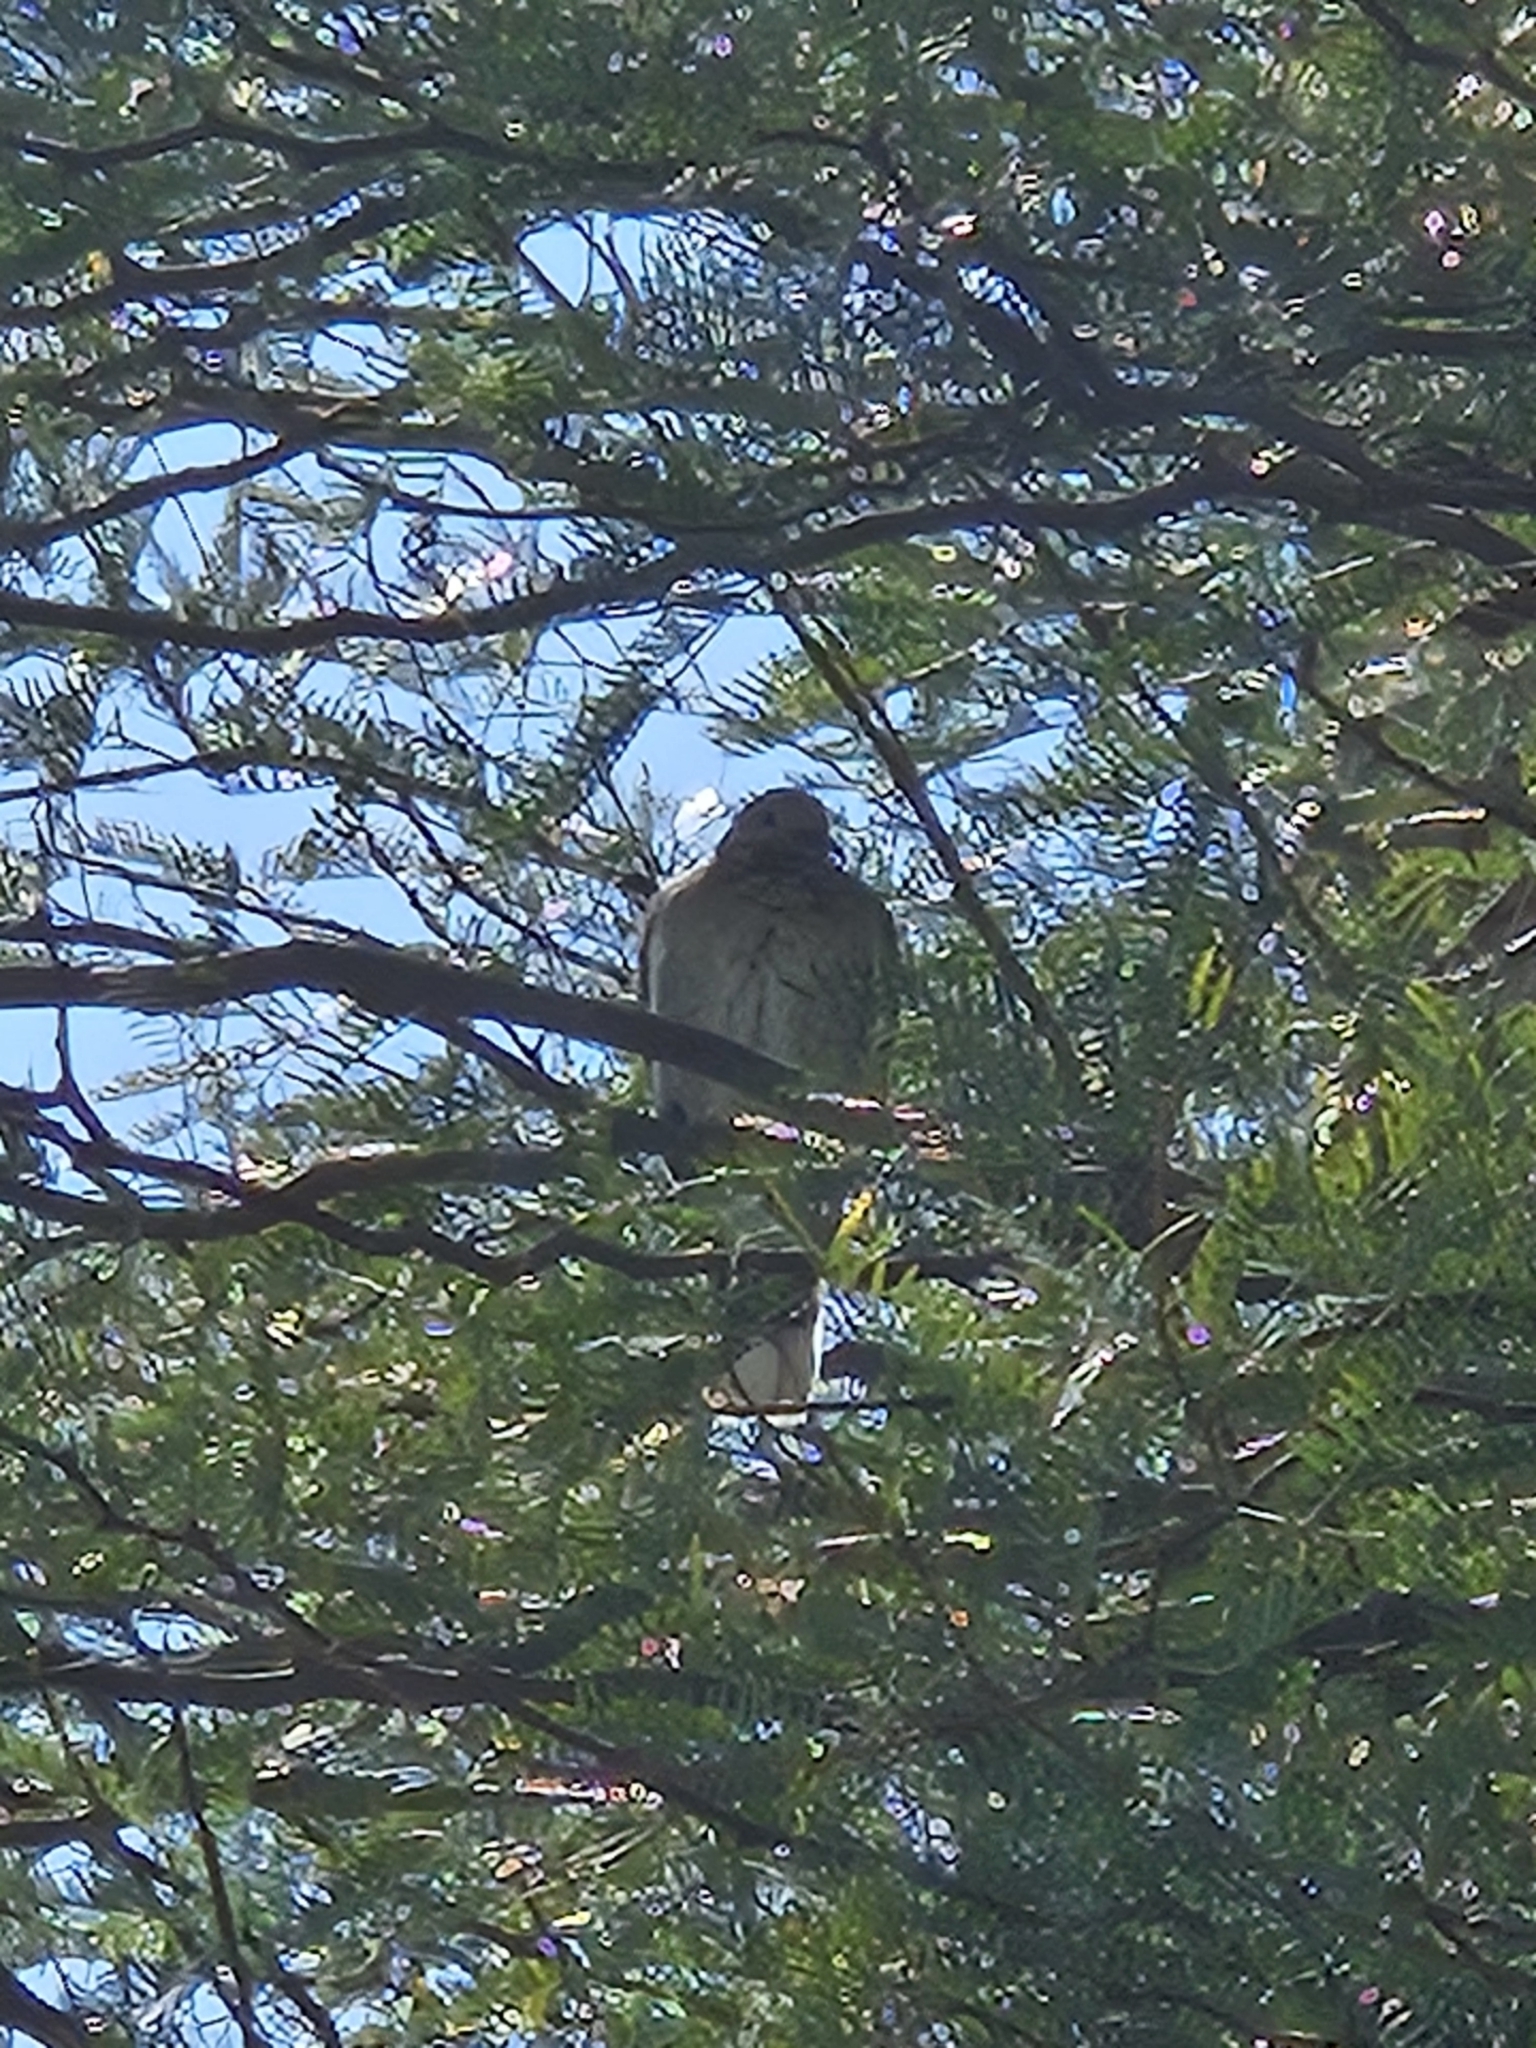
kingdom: Animalia
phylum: Chordata
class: Aves
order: Columbiformes
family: Columbidae
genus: Zenaida
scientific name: Zenaida asiatica
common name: White-winged dove
